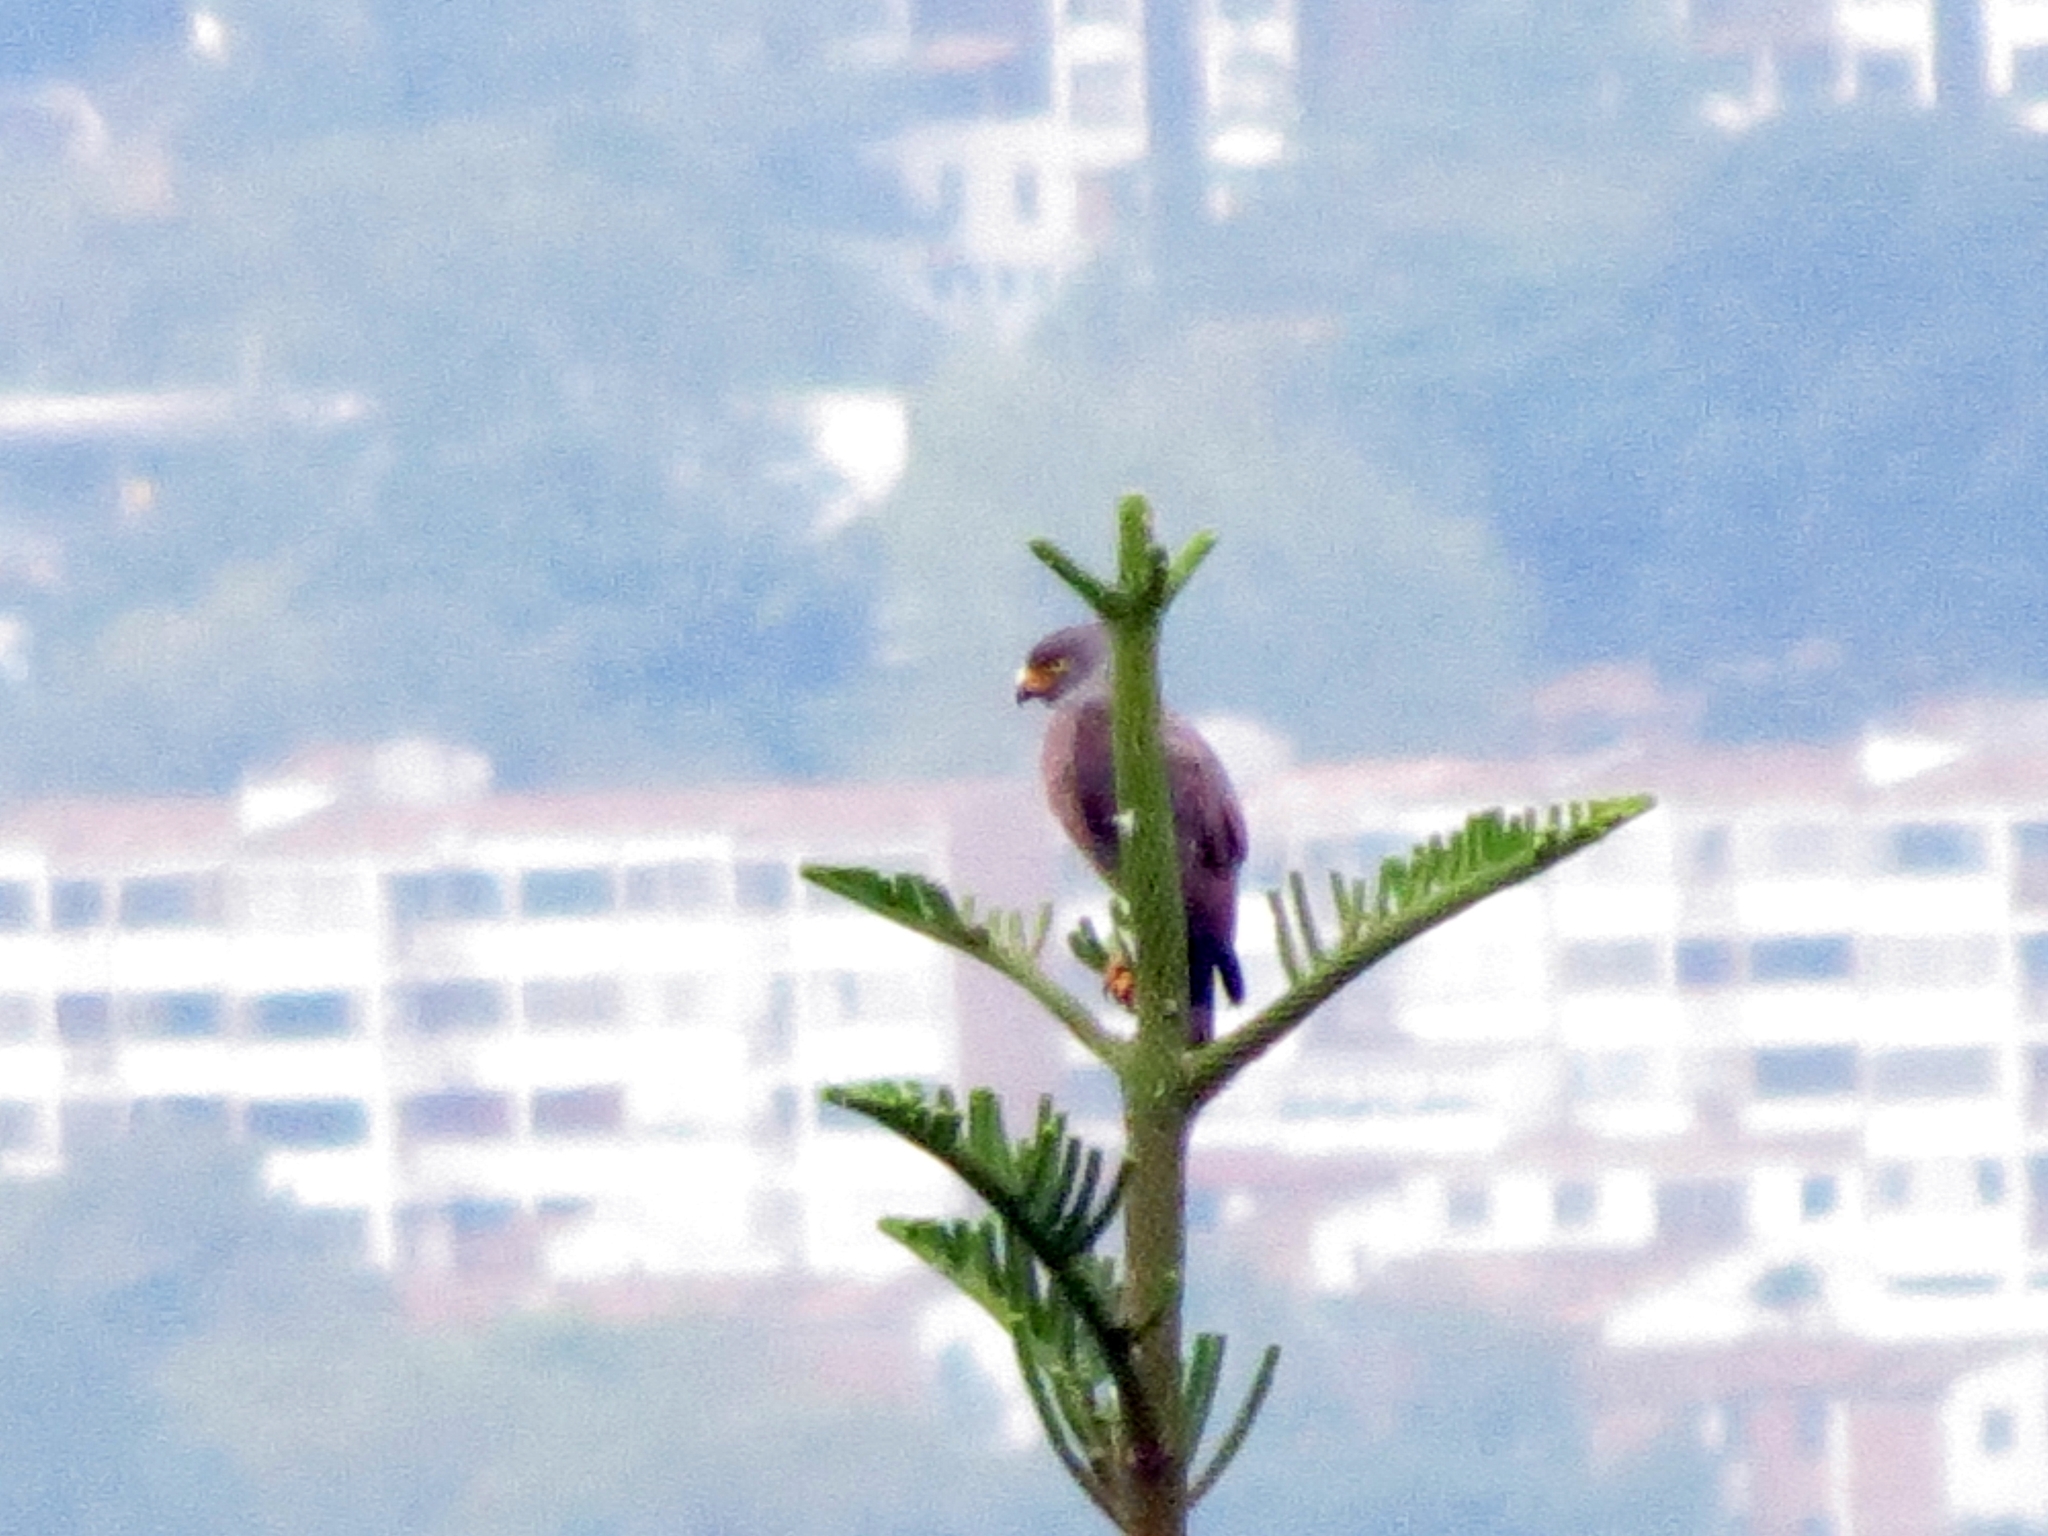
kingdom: Animalia
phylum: Chordata
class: Aves
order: Accipitriformes
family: Accipitridae
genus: Rupornis
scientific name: Rupornis magnirostris
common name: Roadside hawk
